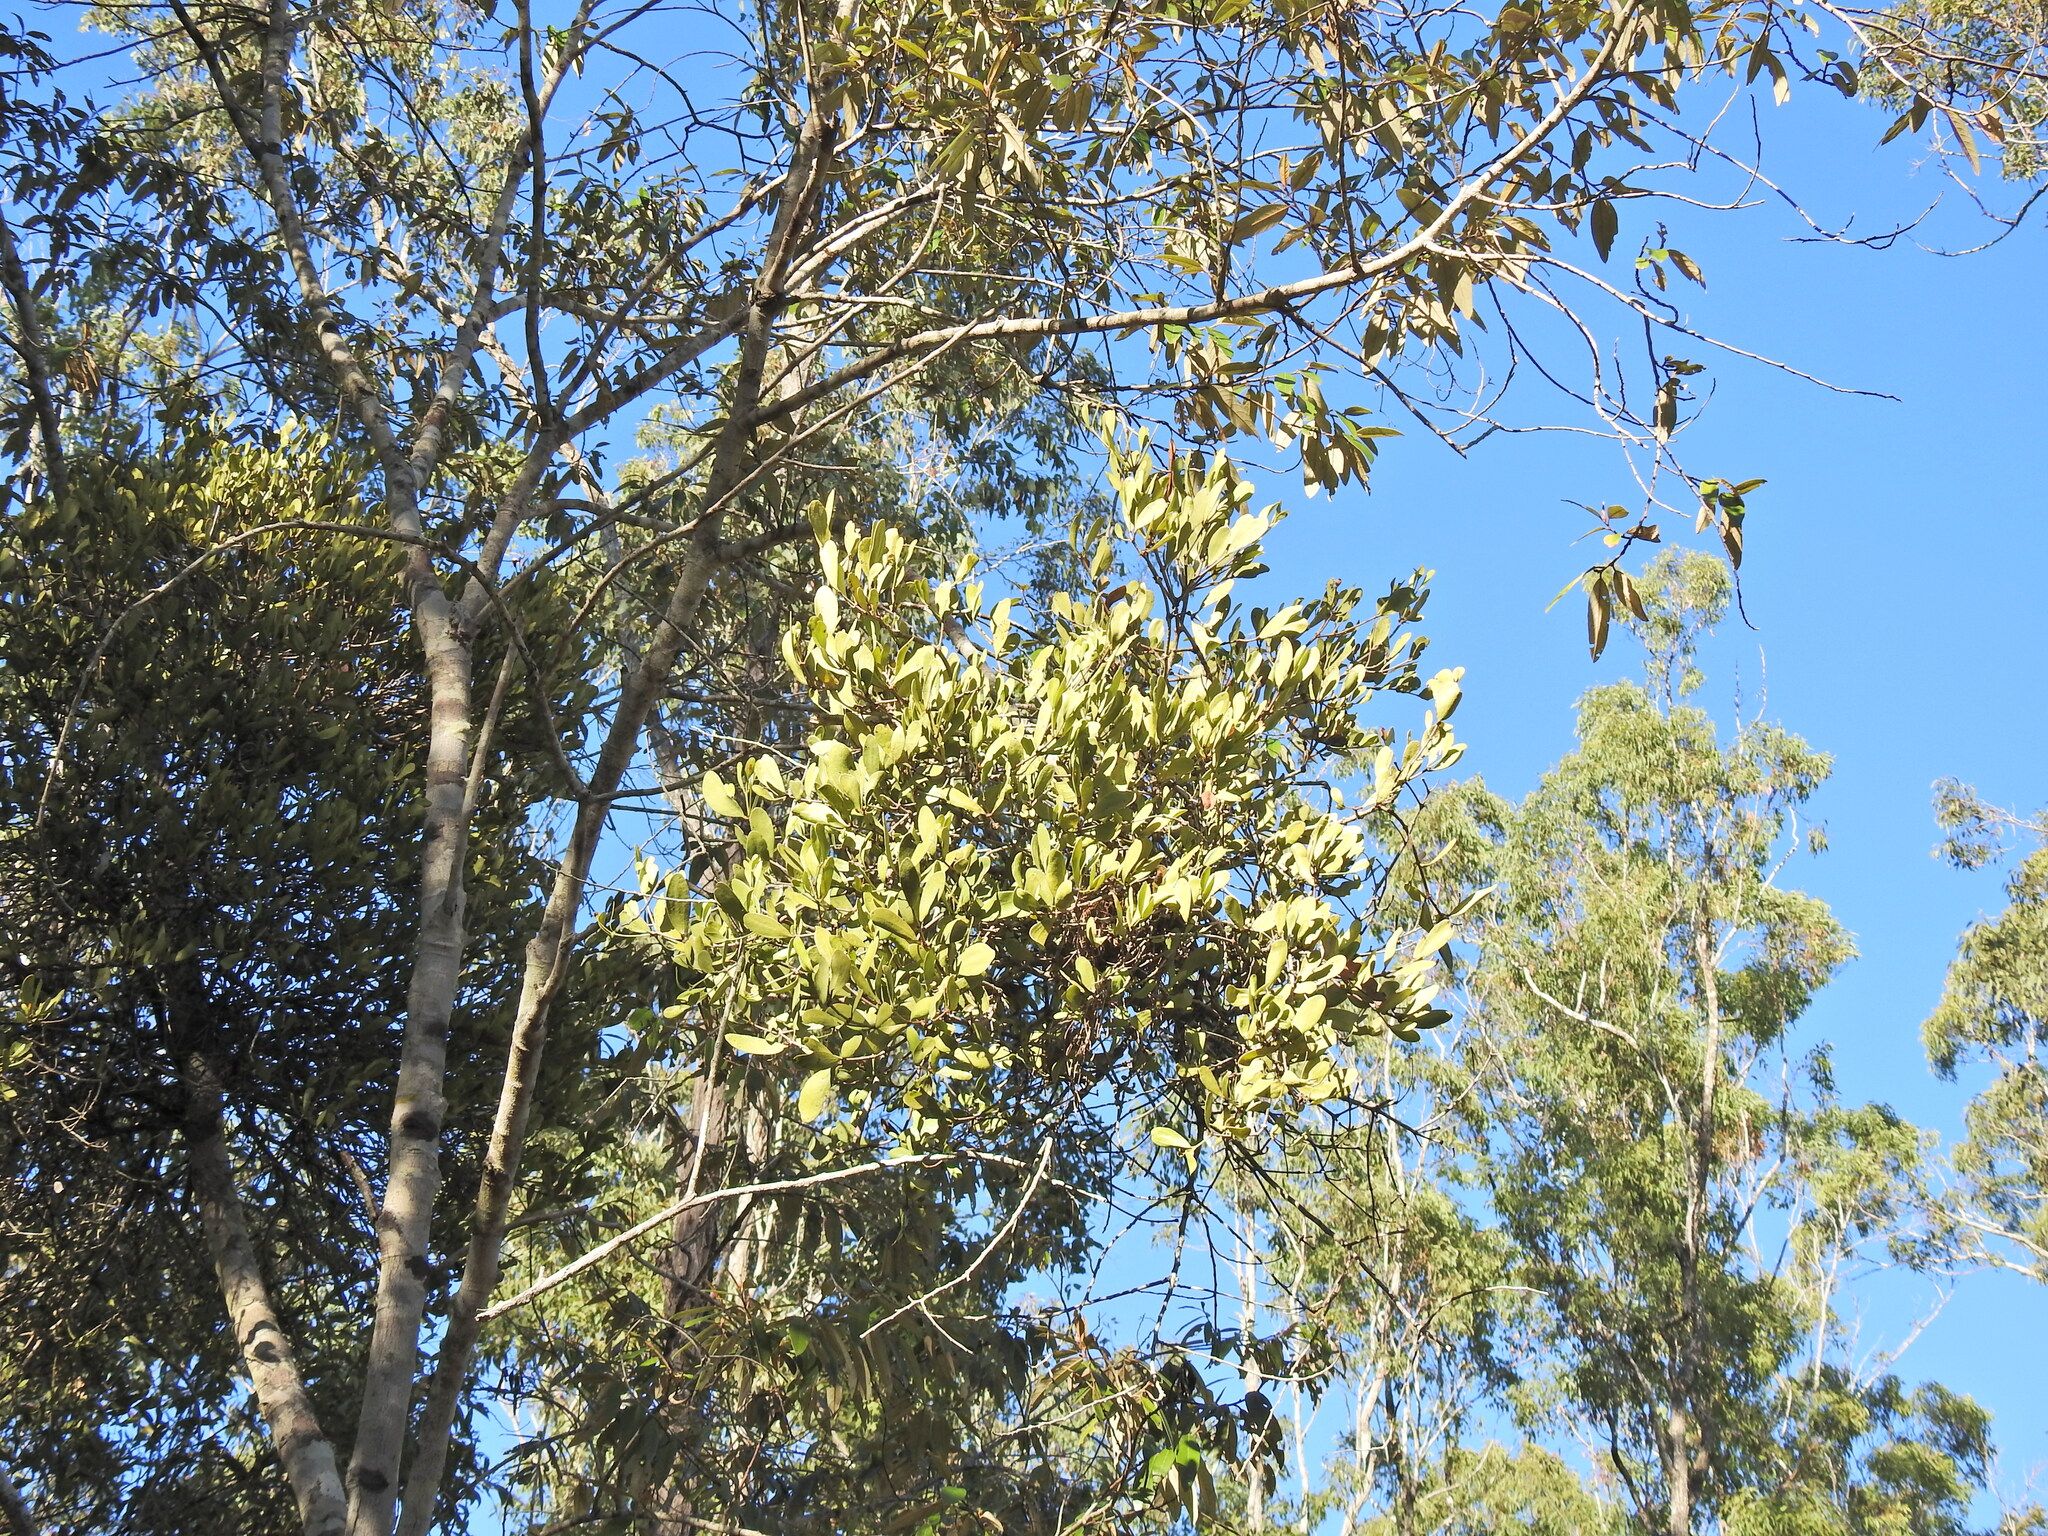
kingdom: Plantae
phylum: Tracheophyta
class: Magnoliopsida
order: Santalales
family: Loranthaceae
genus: Amyema
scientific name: Amyema conspicua
